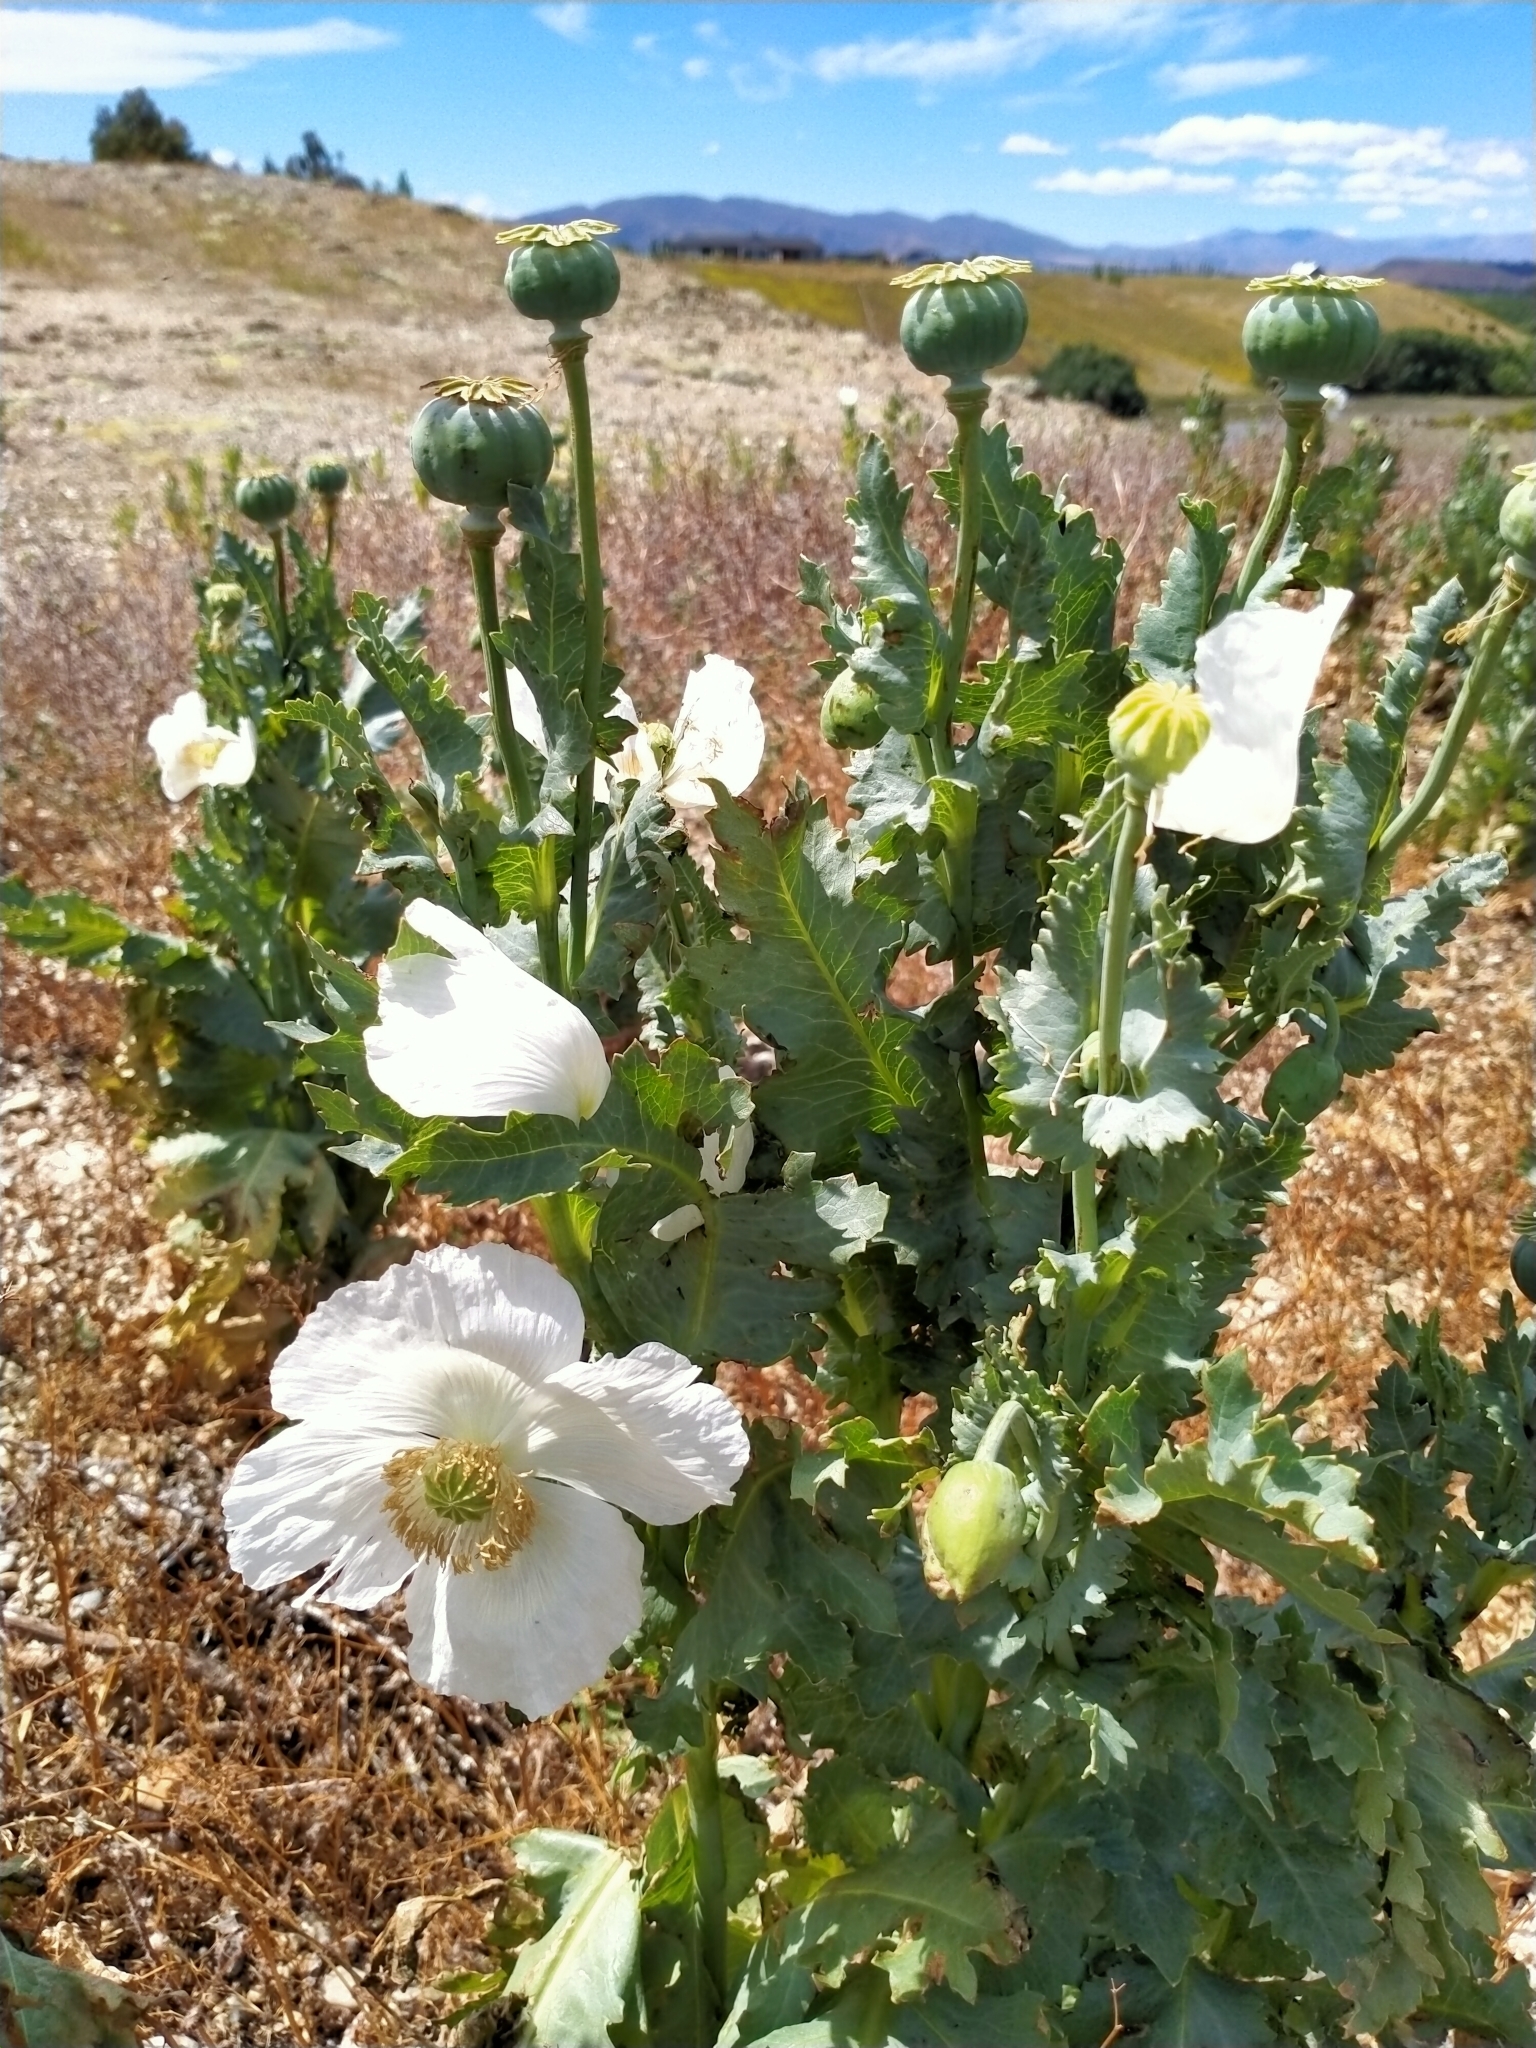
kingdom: Plantae
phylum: Tracheophyta
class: Magnoliopsida
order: Ranunculales
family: Papaveraceae
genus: Papaver
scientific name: Papaver somniferum
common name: Opium poppy
